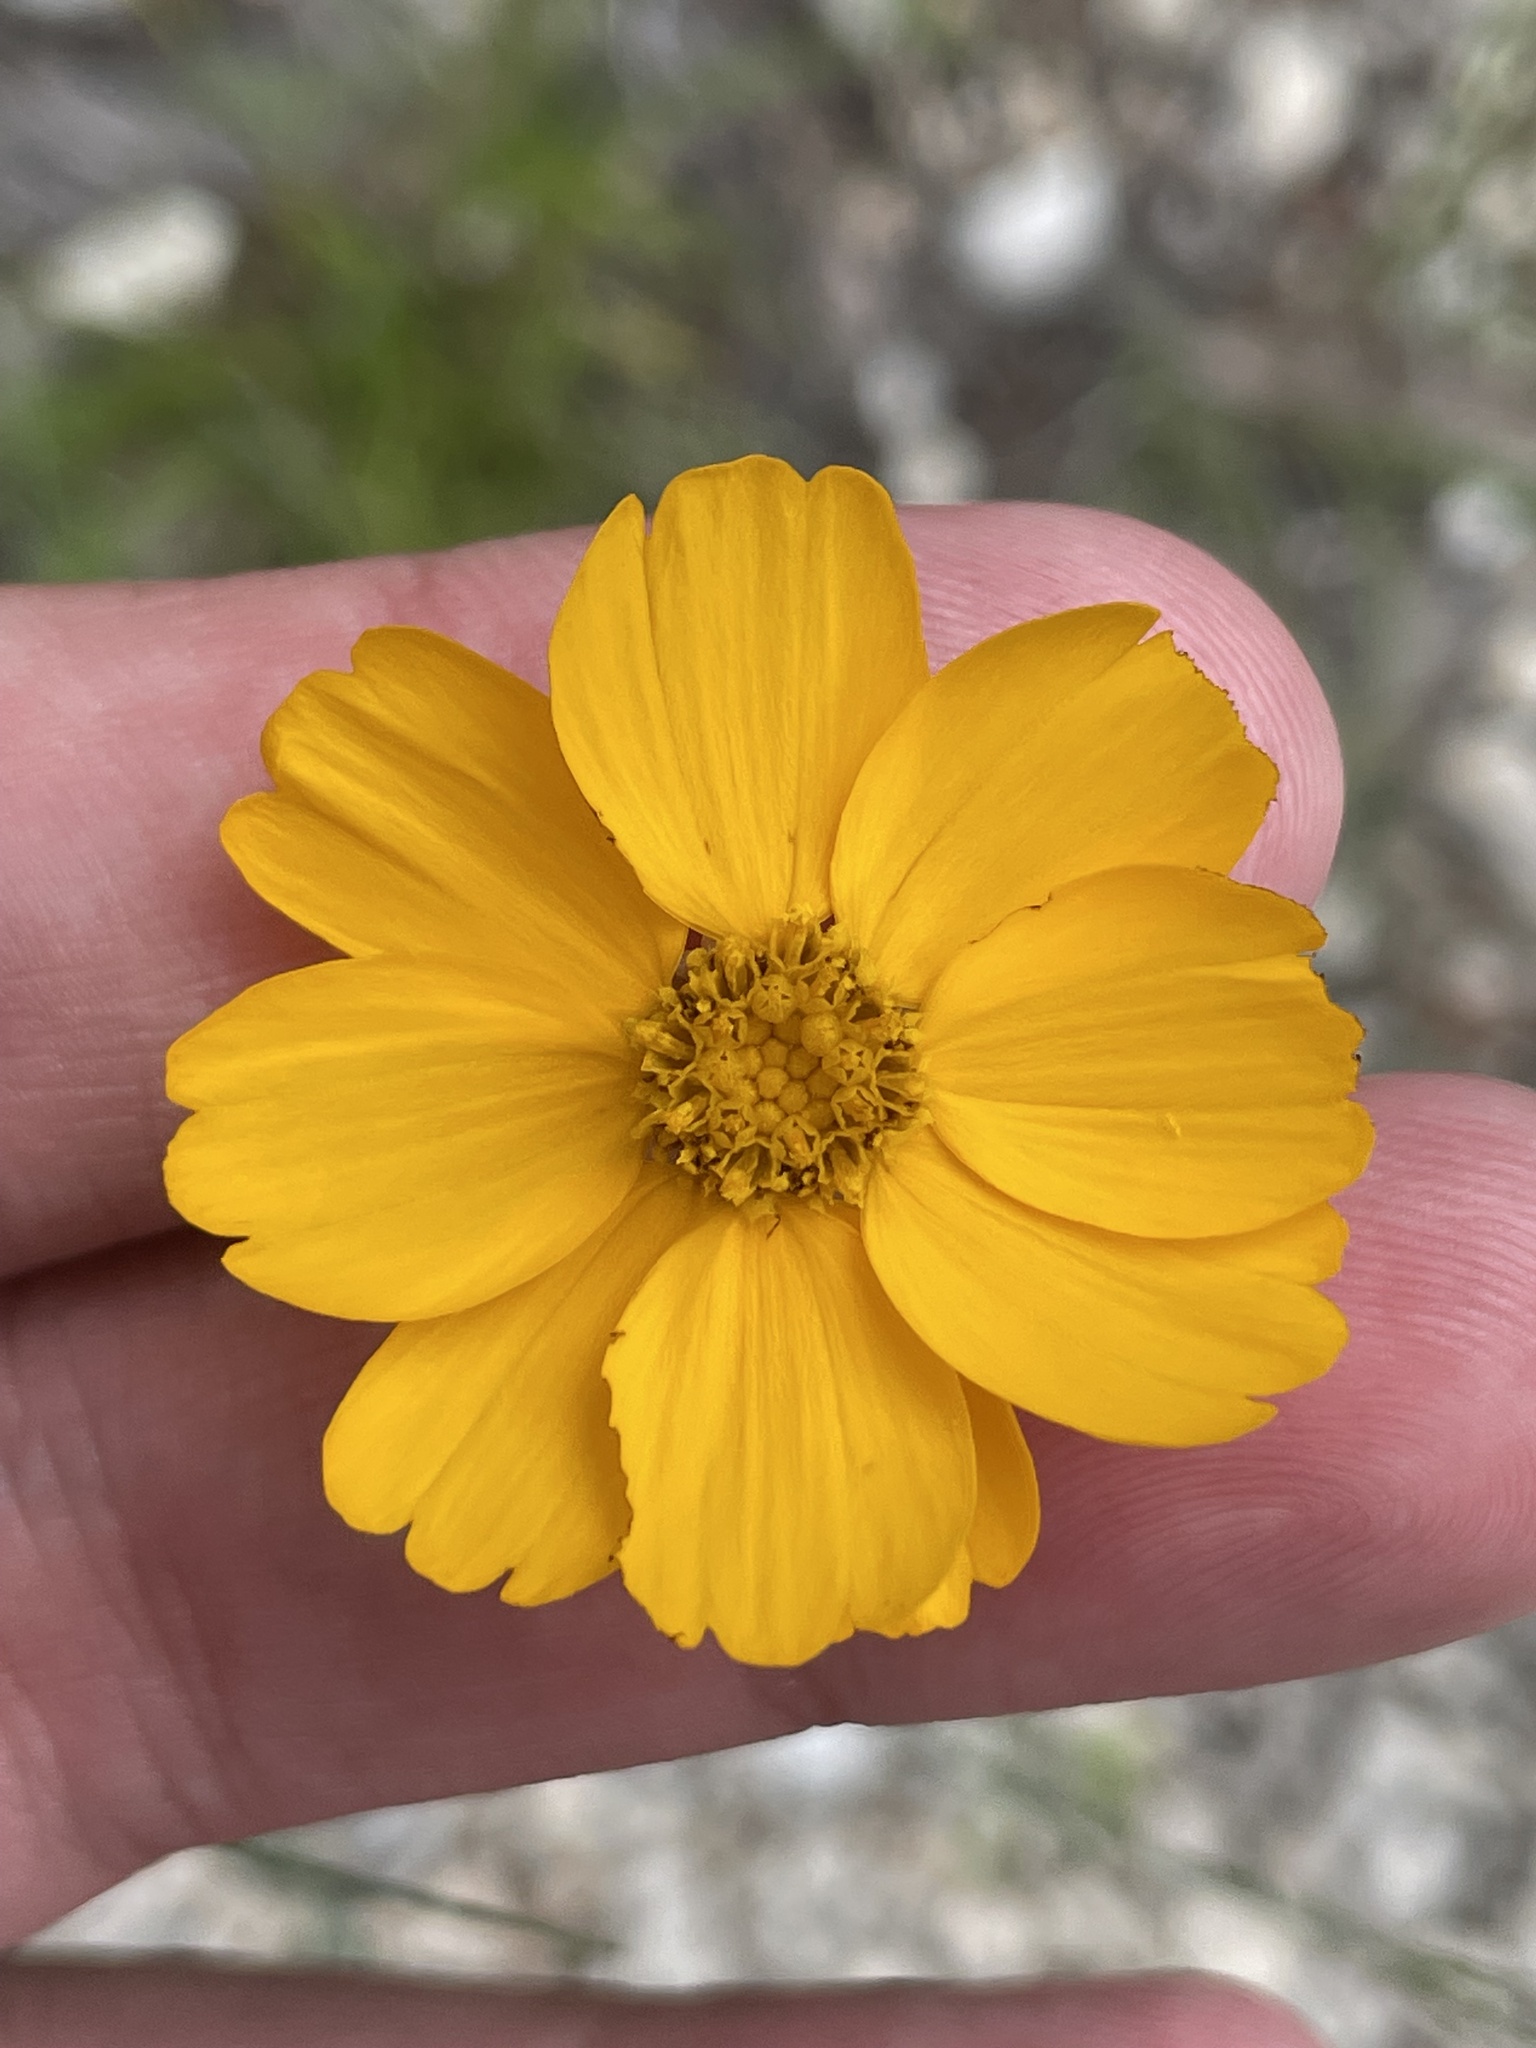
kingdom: Plantae
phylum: Tracheophyta
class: Magnoliopsida
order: Asterales
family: Asteraceae
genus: Thelesperma
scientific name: Thelesperma simplicifolium
